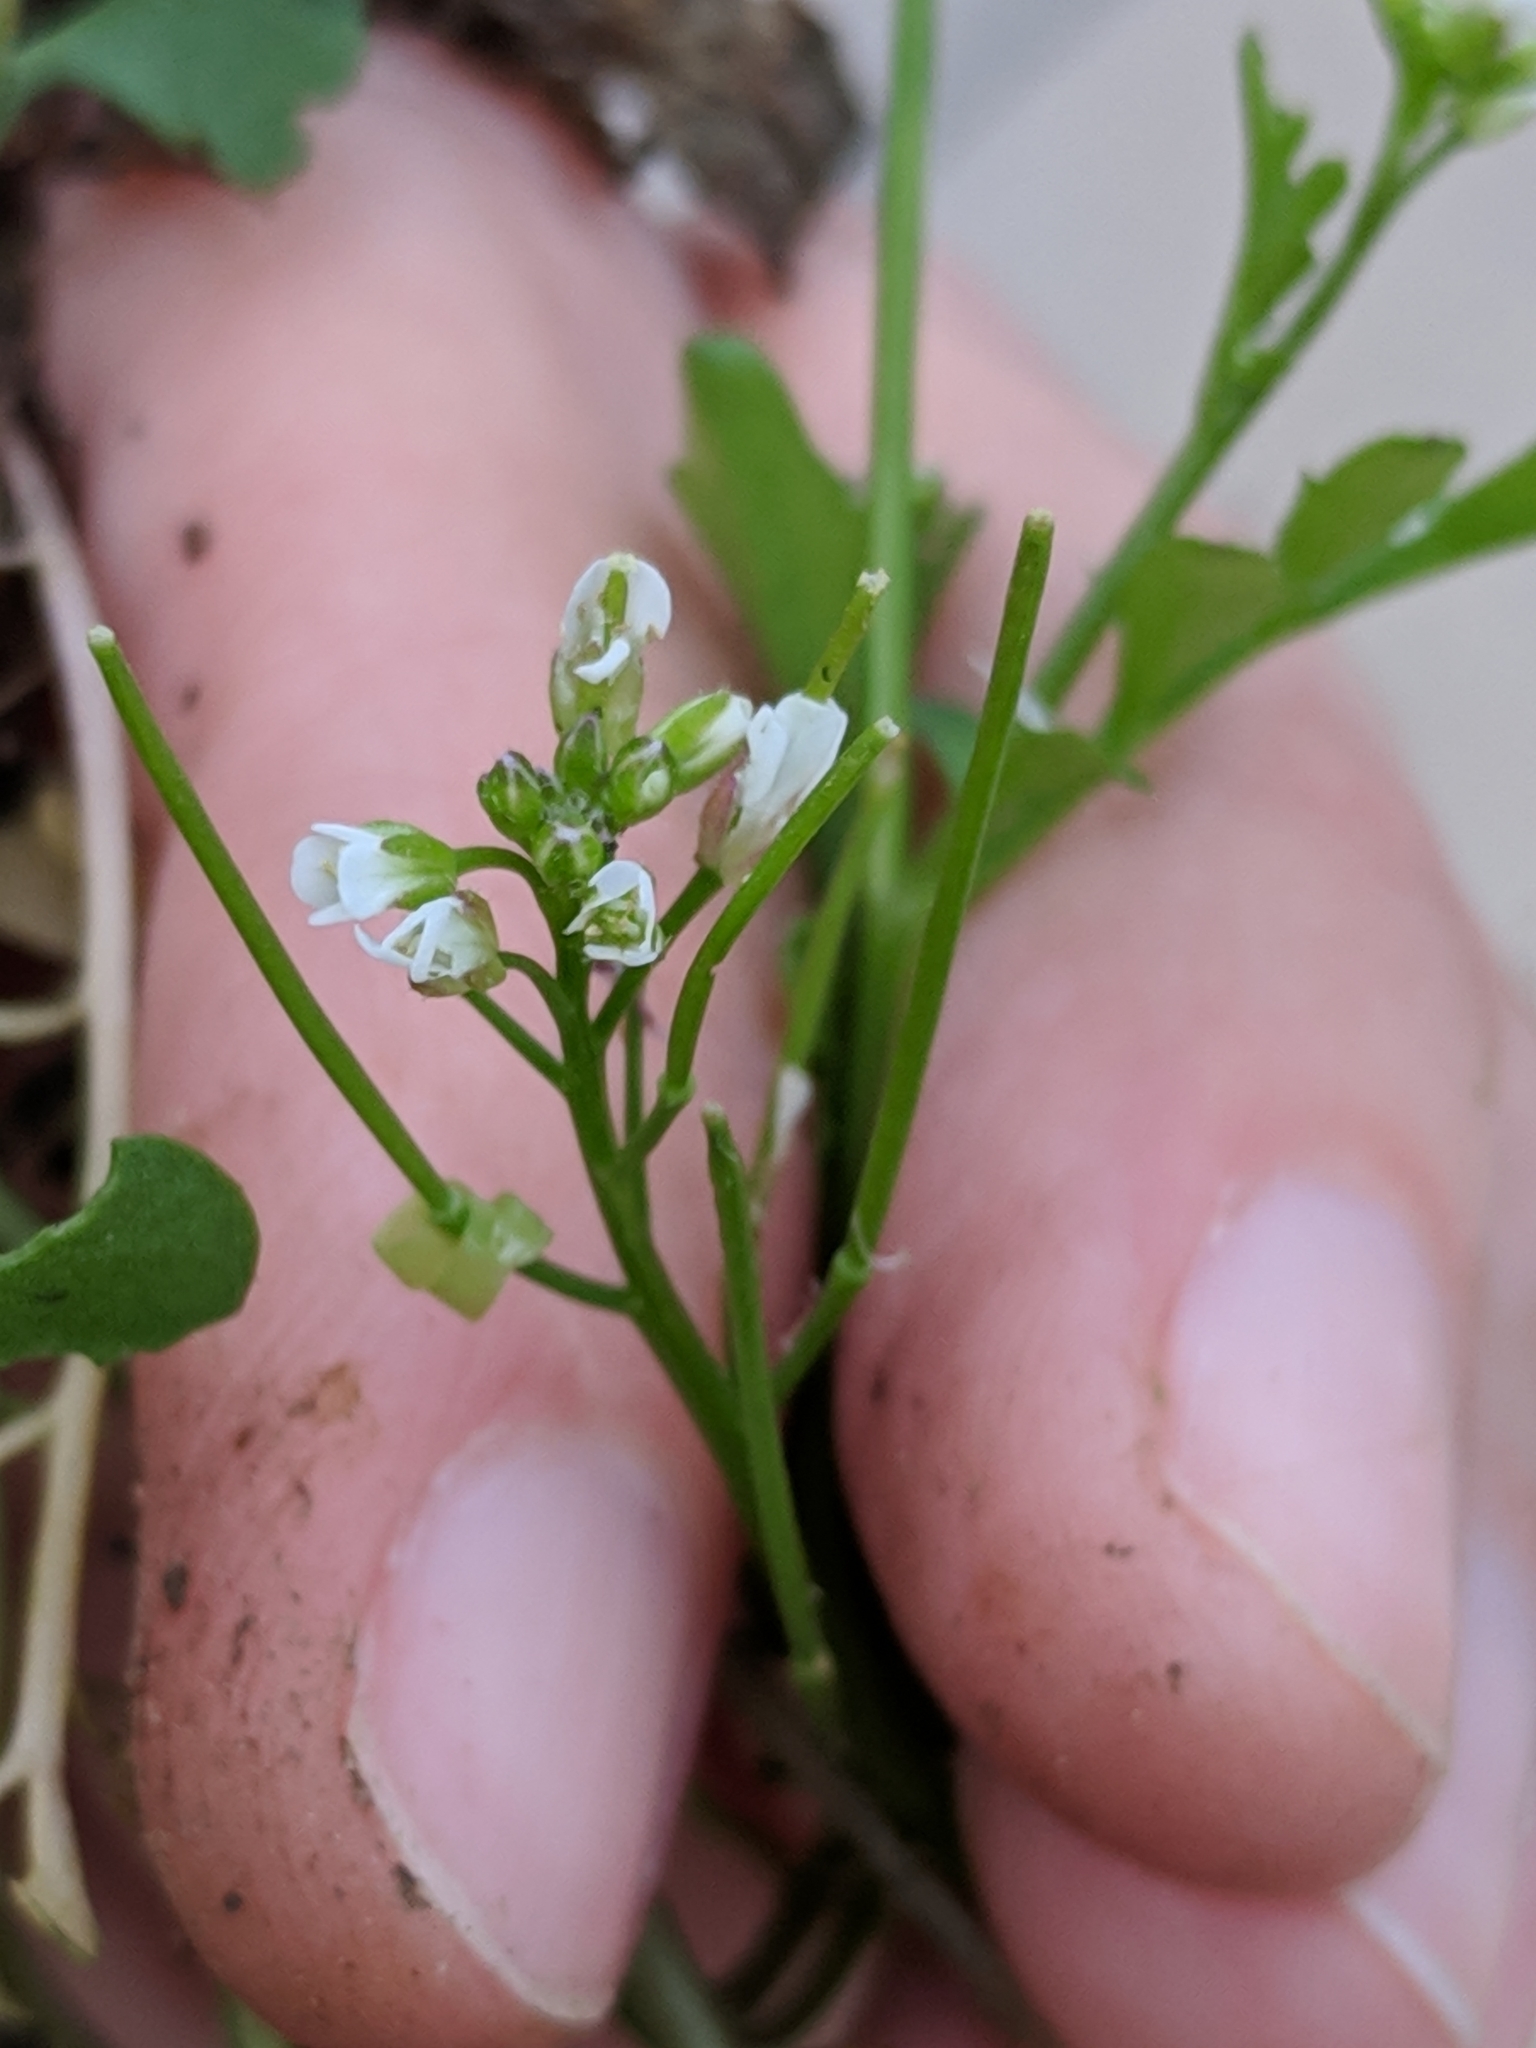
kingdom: Plantae
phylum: Tracheophyta
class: Magnoliopsida
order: Brassicales
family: Brassicaceae
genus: Cardamine
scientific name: Cardamine occulta
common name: Asian wavy bittercress
